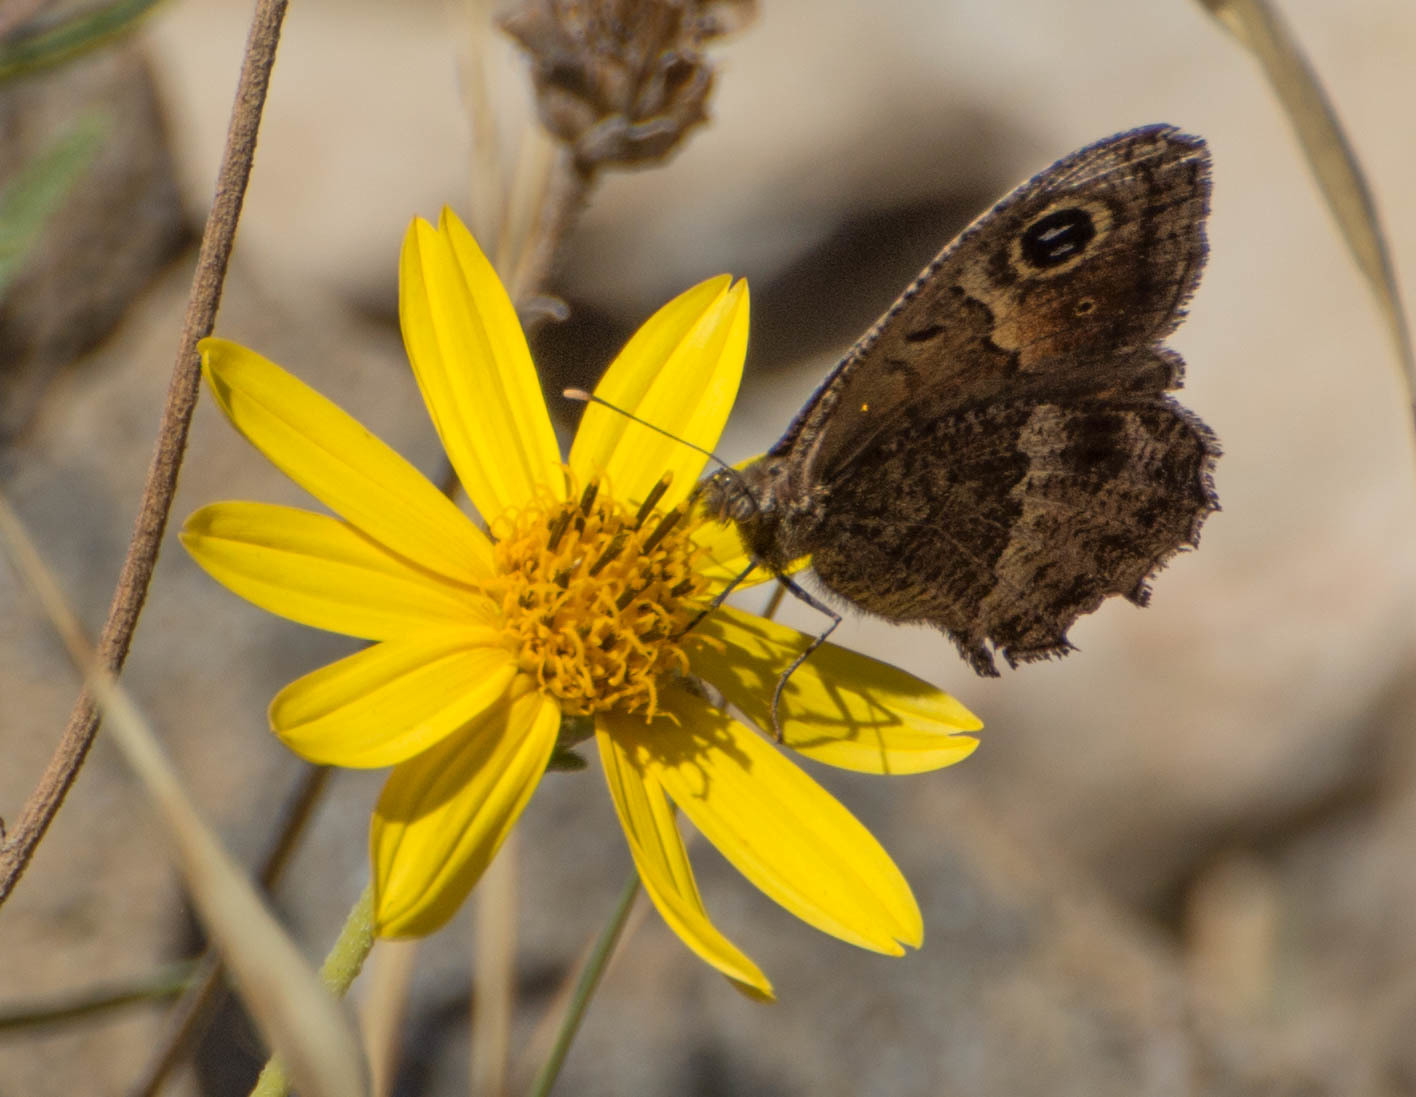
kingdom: Animalia
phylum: Arthropoda
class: Insecta
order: Lepidoptera
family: Nymphalidae
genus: Pampasatyrus
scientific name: Pampasatyrus quies
